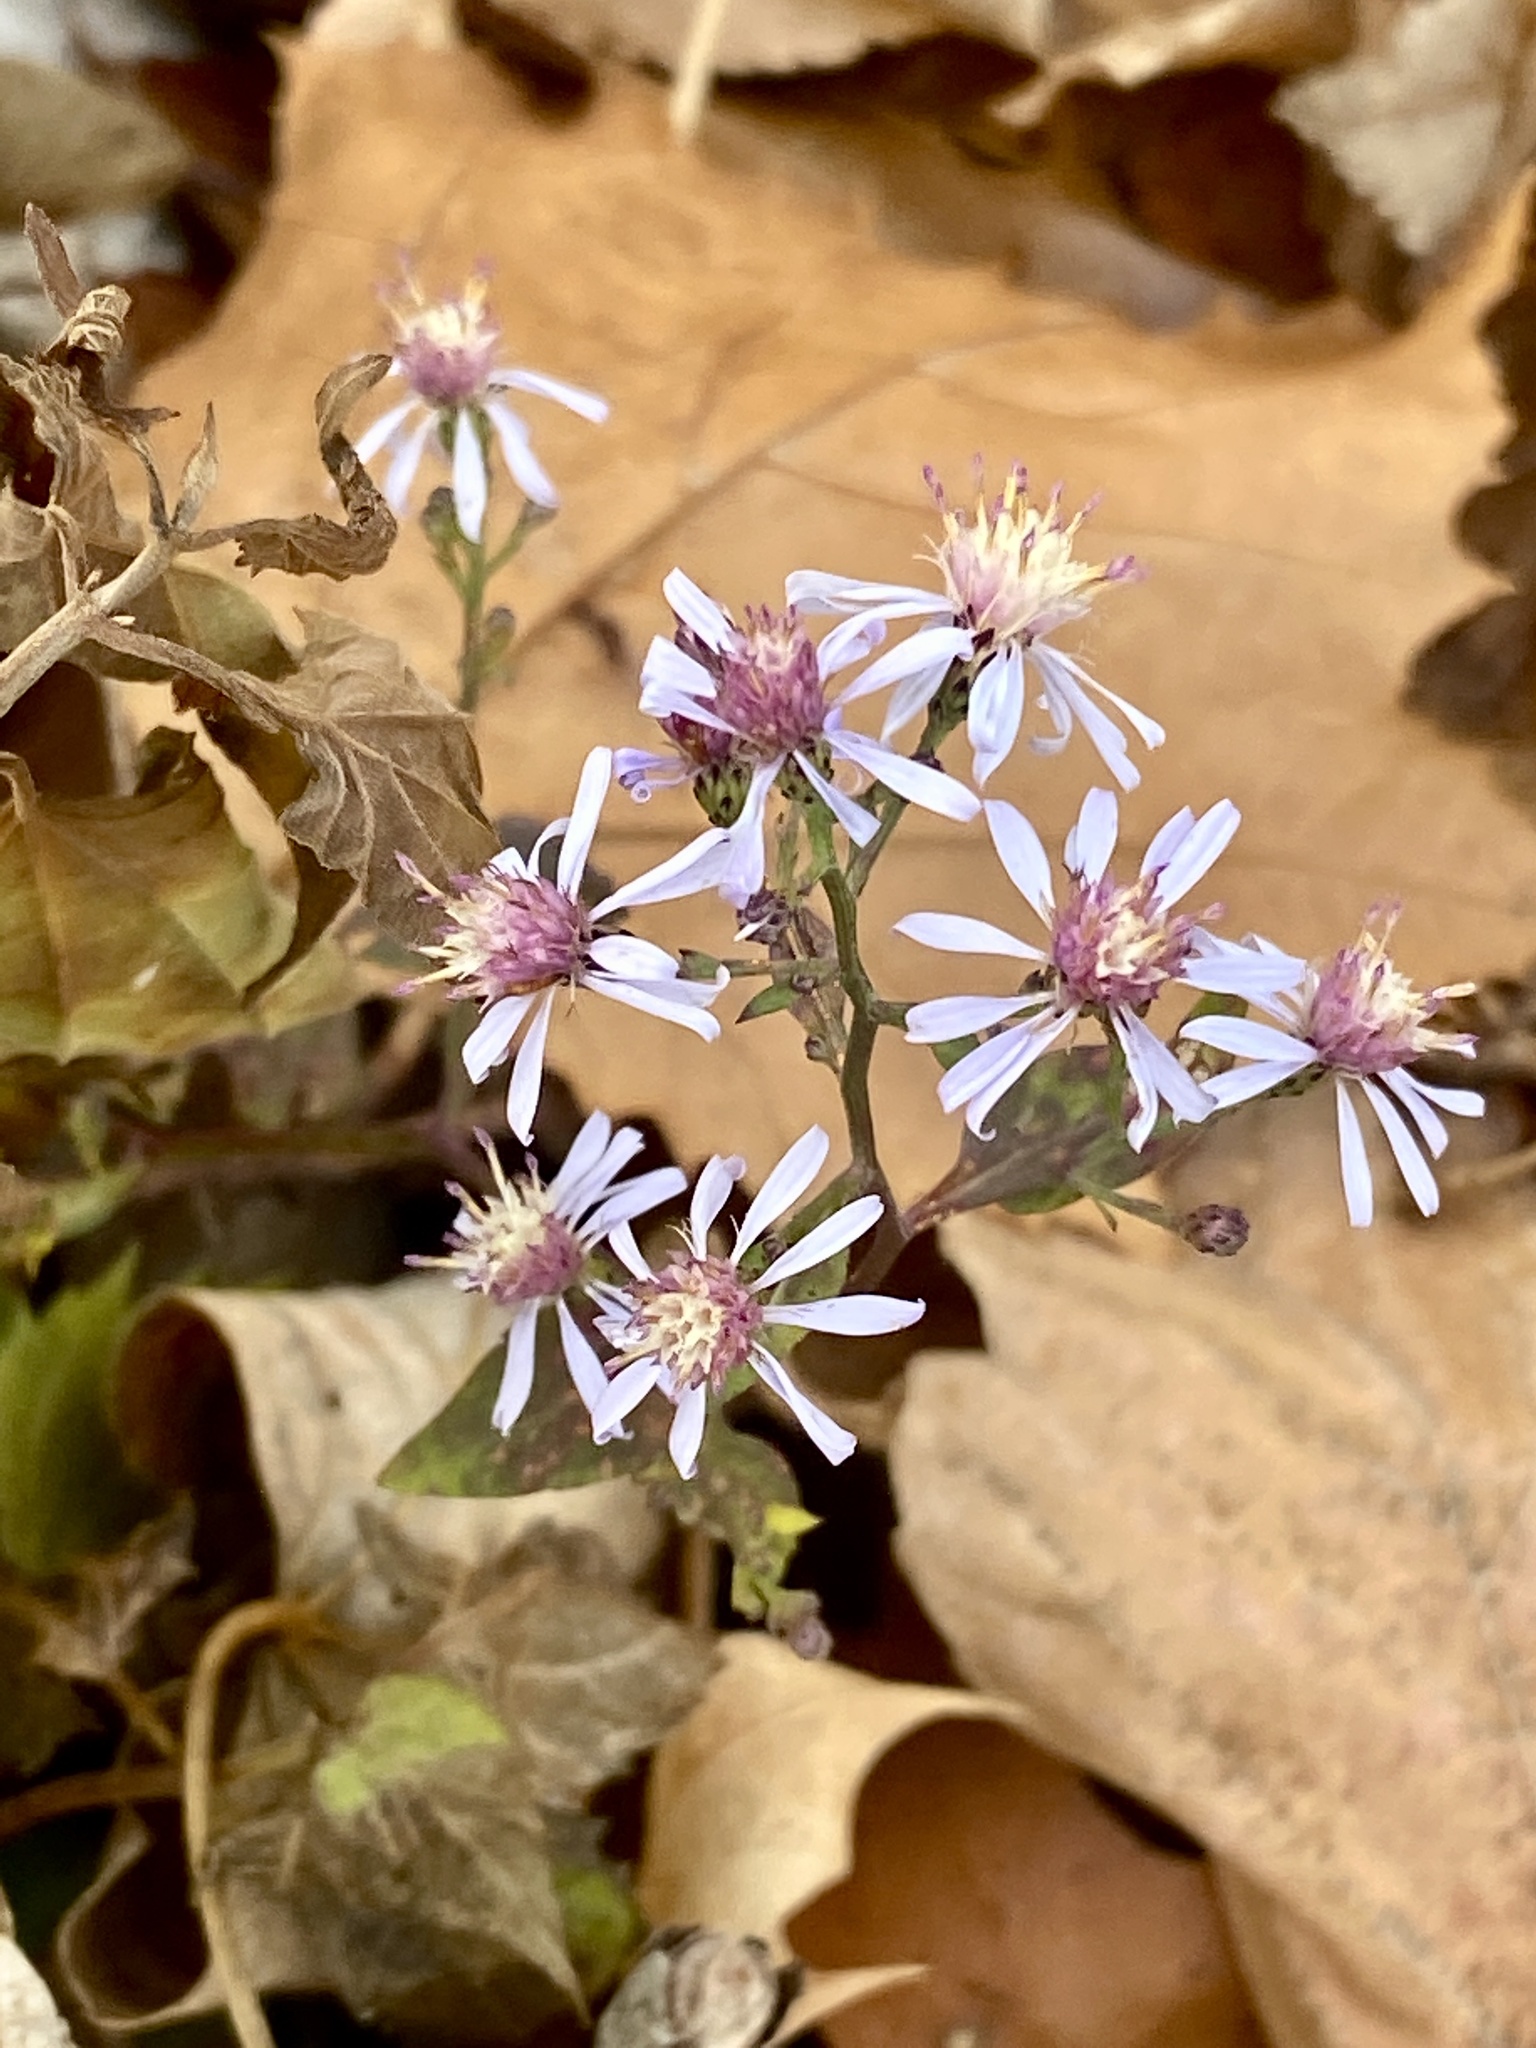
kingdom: Plantae
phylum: Tracheophyta
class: Magnoliopsida
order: Asterales
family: Asteraceae
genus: Symphyotrichum
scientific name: Symphyotrichum cordifolium
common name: Beeweed
